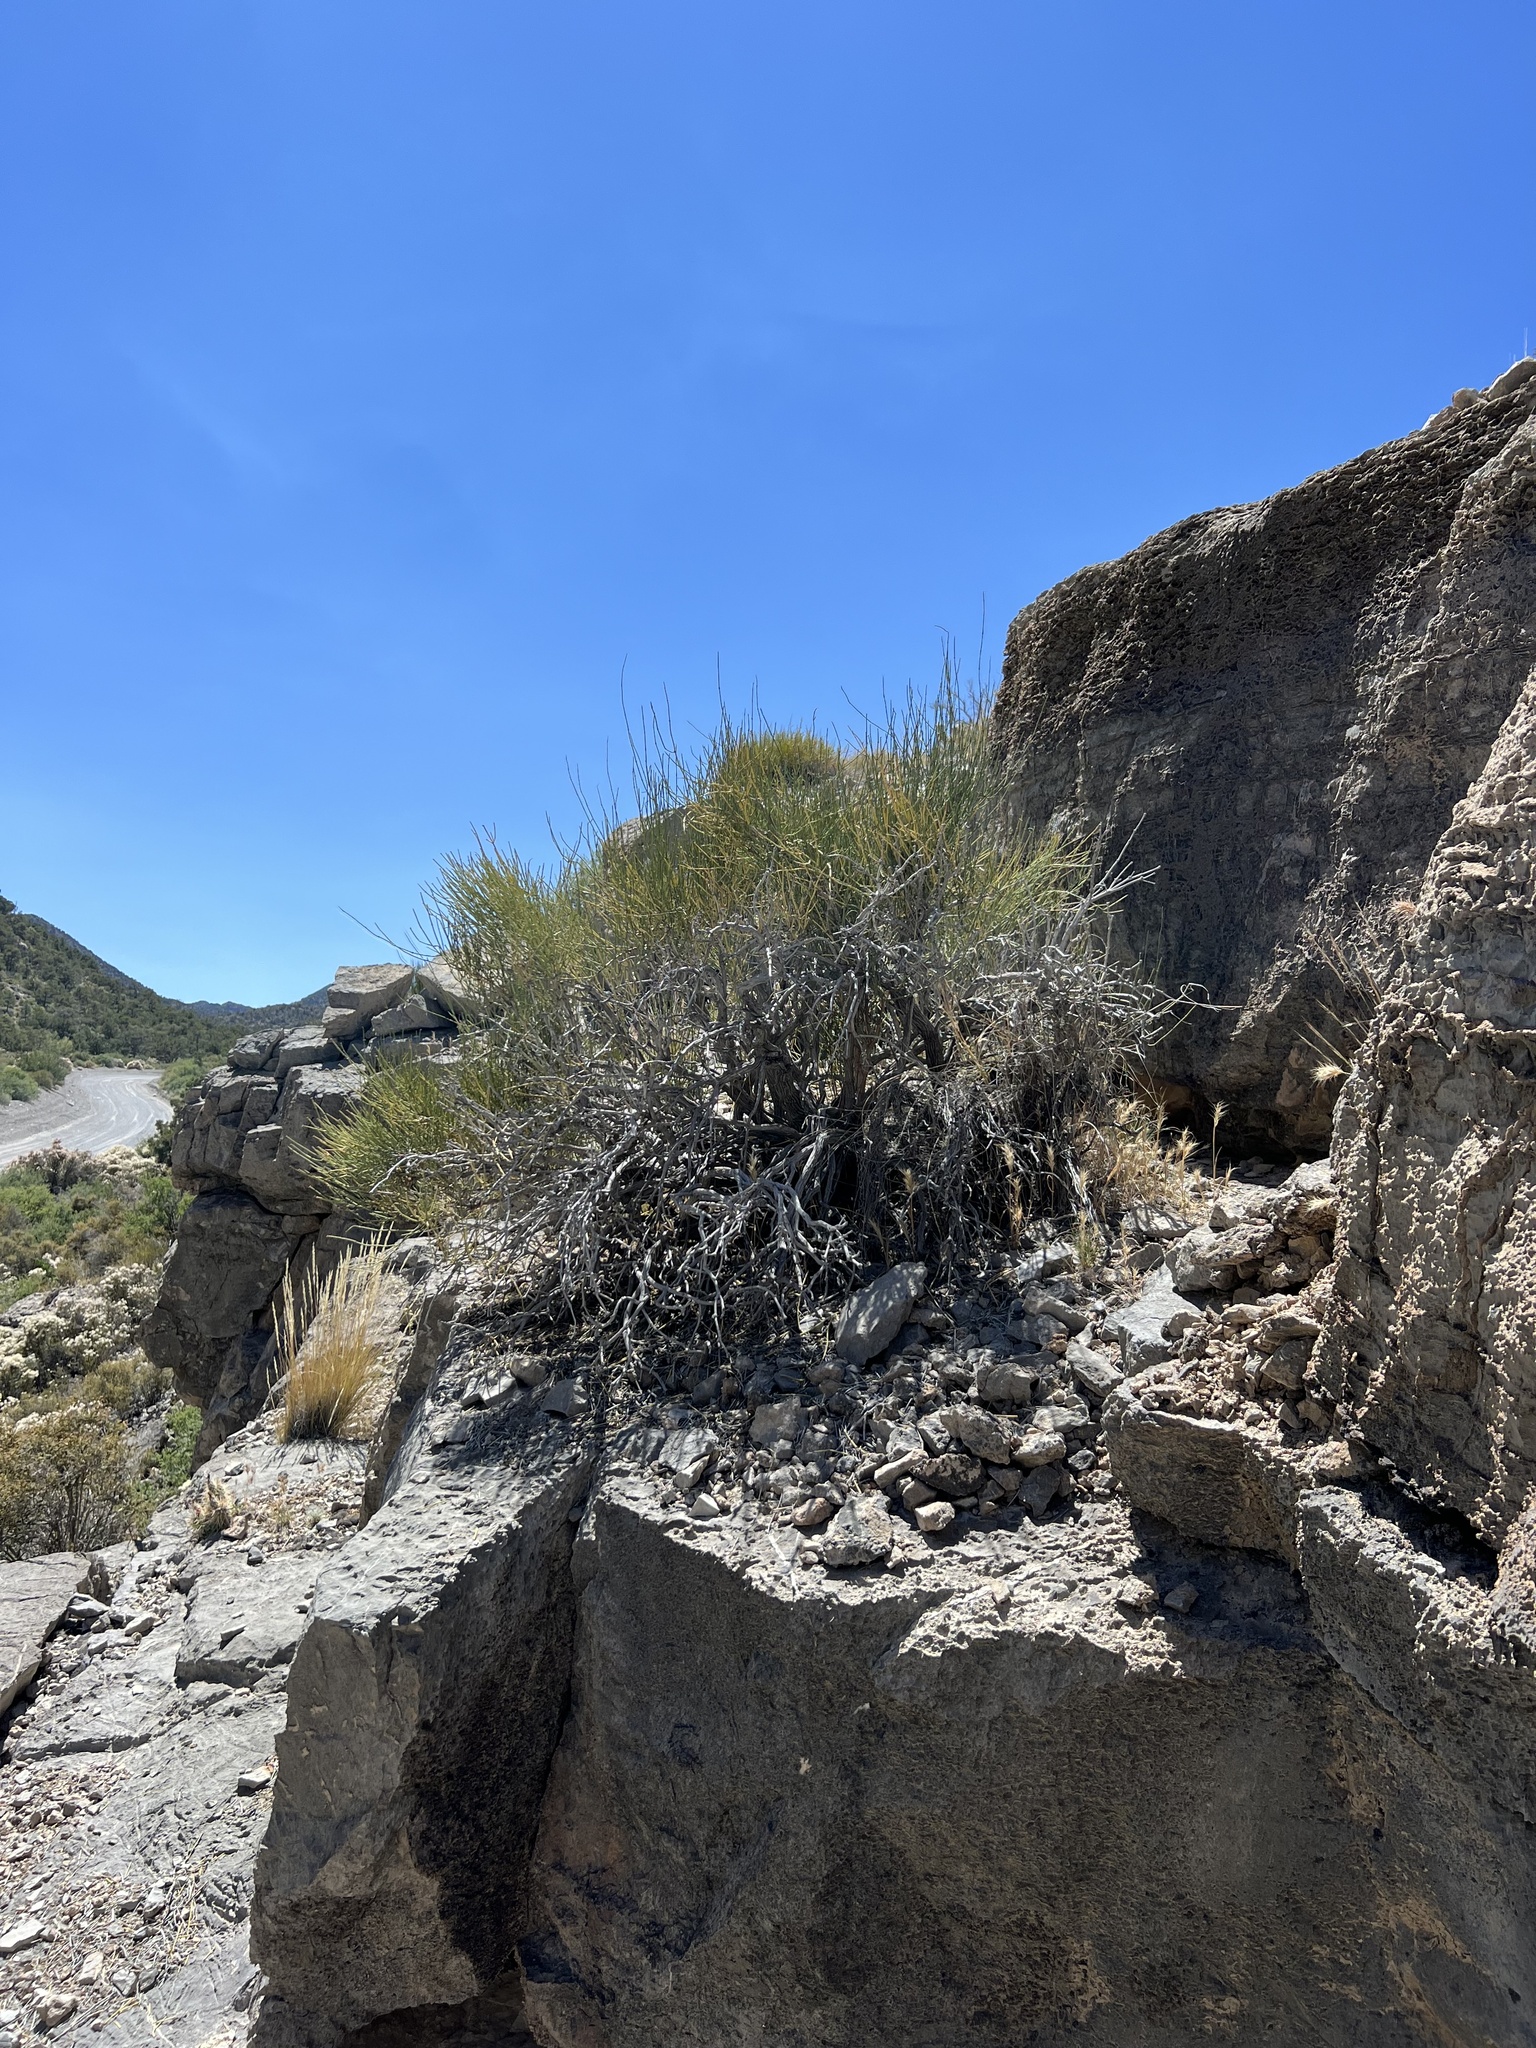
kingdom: Plantae
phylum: Tracheophyta
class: Gnetopsida
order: Ephedrales
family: Ephedraceae
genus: Ephedra
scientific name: Ephedra viridis
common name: Green ephedra
